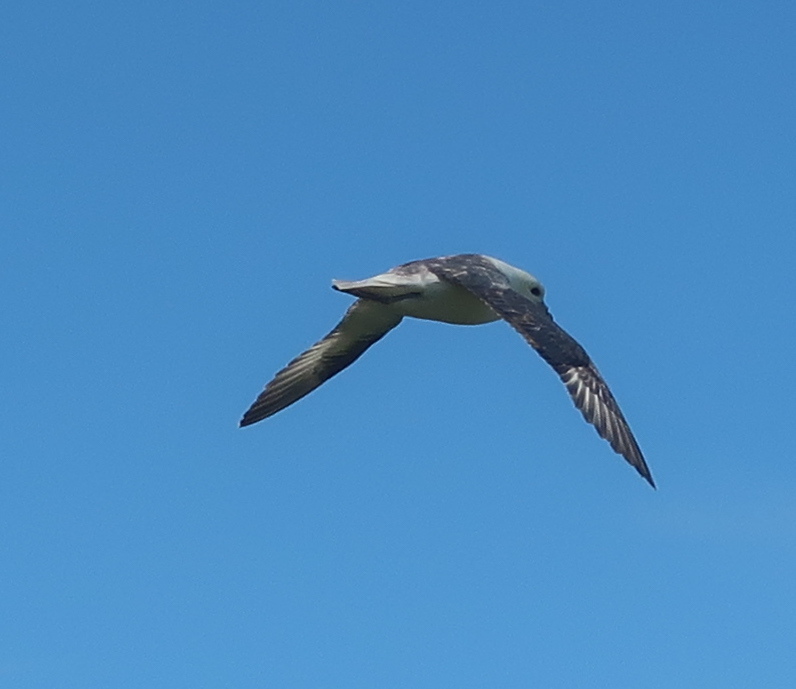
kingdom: Animalia
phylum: Chordata
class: Aves
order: Procellariiformes
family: Procellariidae
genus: Fulmarus
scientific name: Fulmarus glacialis
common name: Northern fulmar
